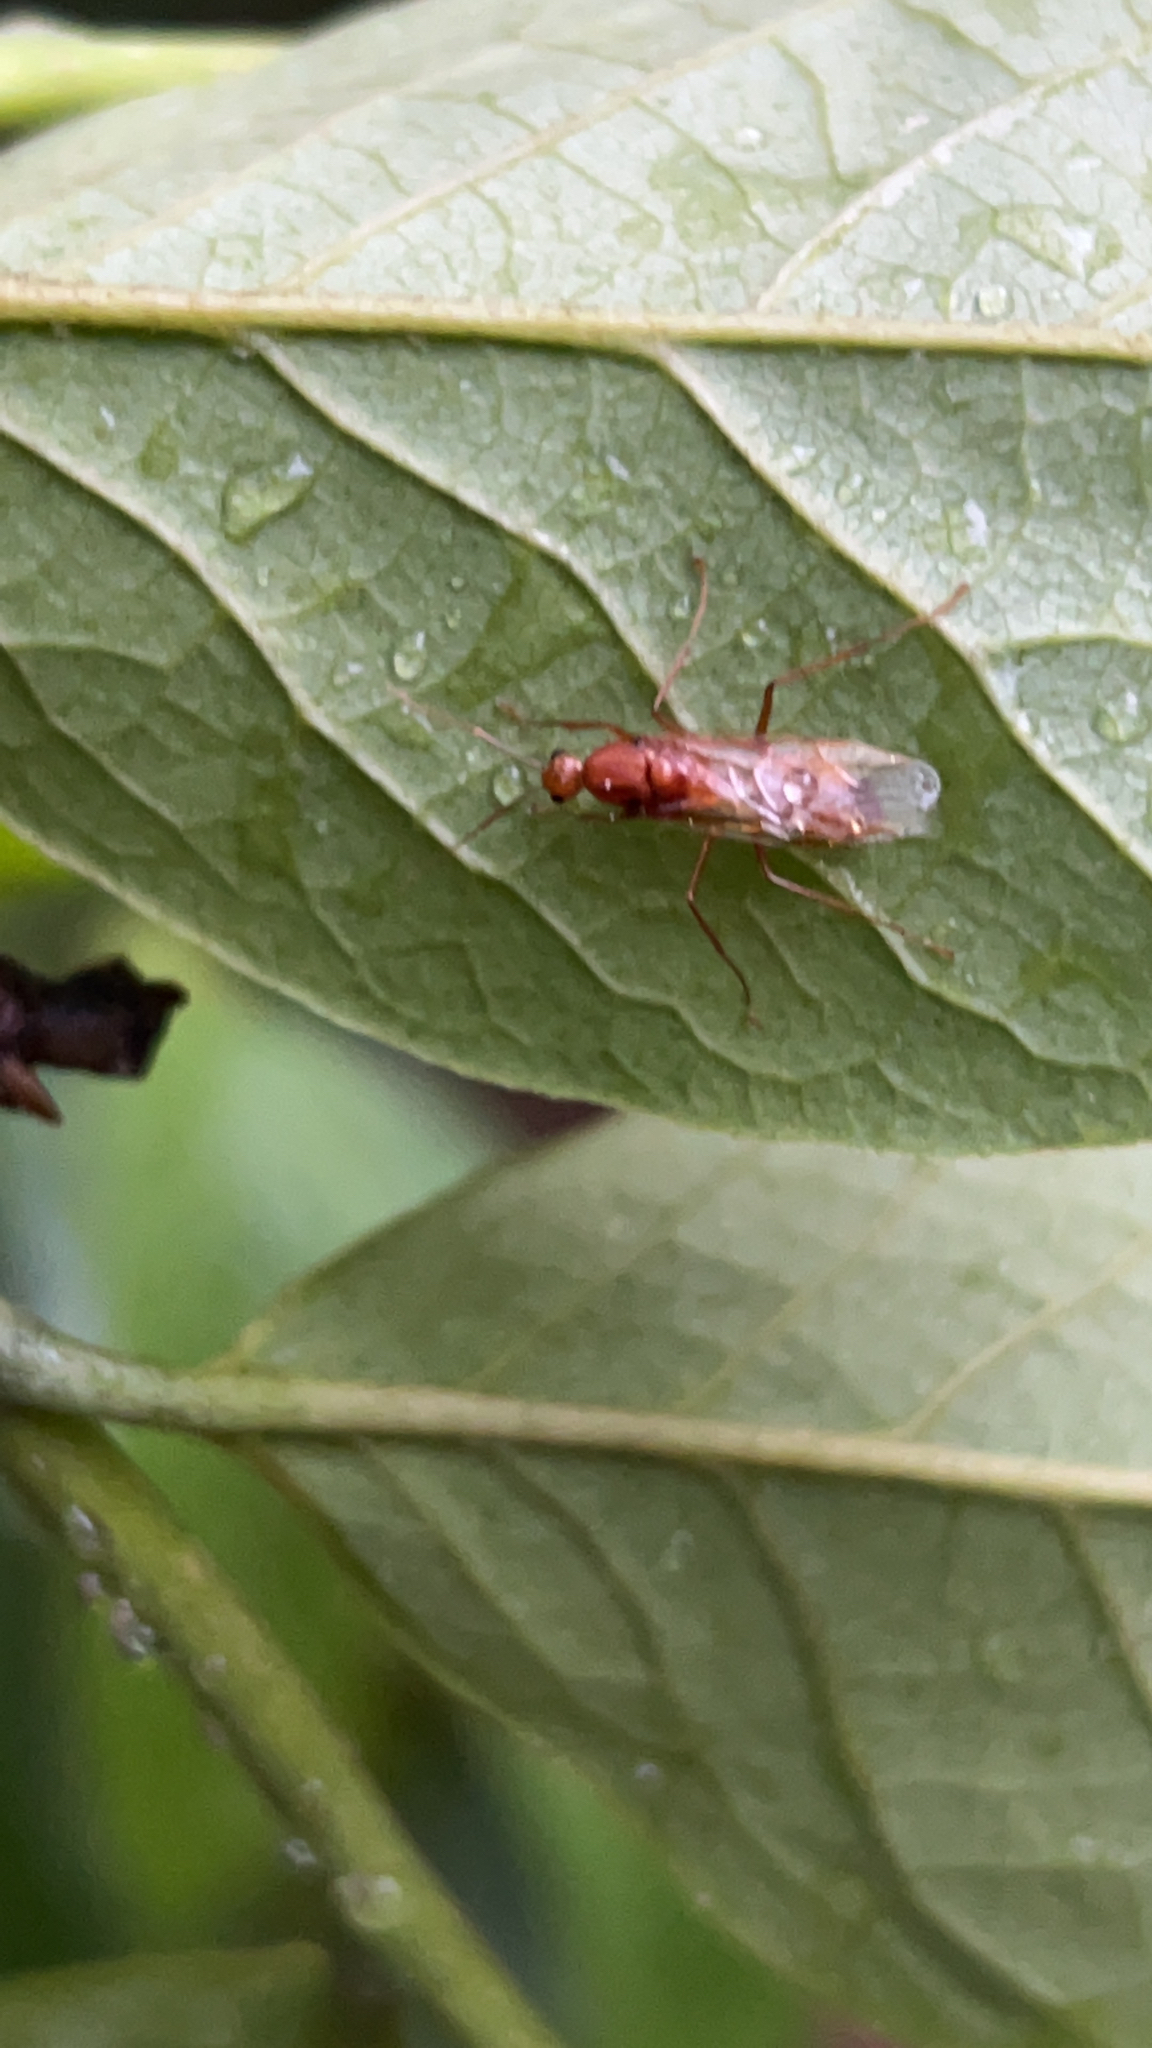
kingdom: Animalia
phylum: Arthropoda
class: Insecta
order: Hymenoptera
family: Formicidae
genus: Camponotus
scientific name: Camponotus castaneus
